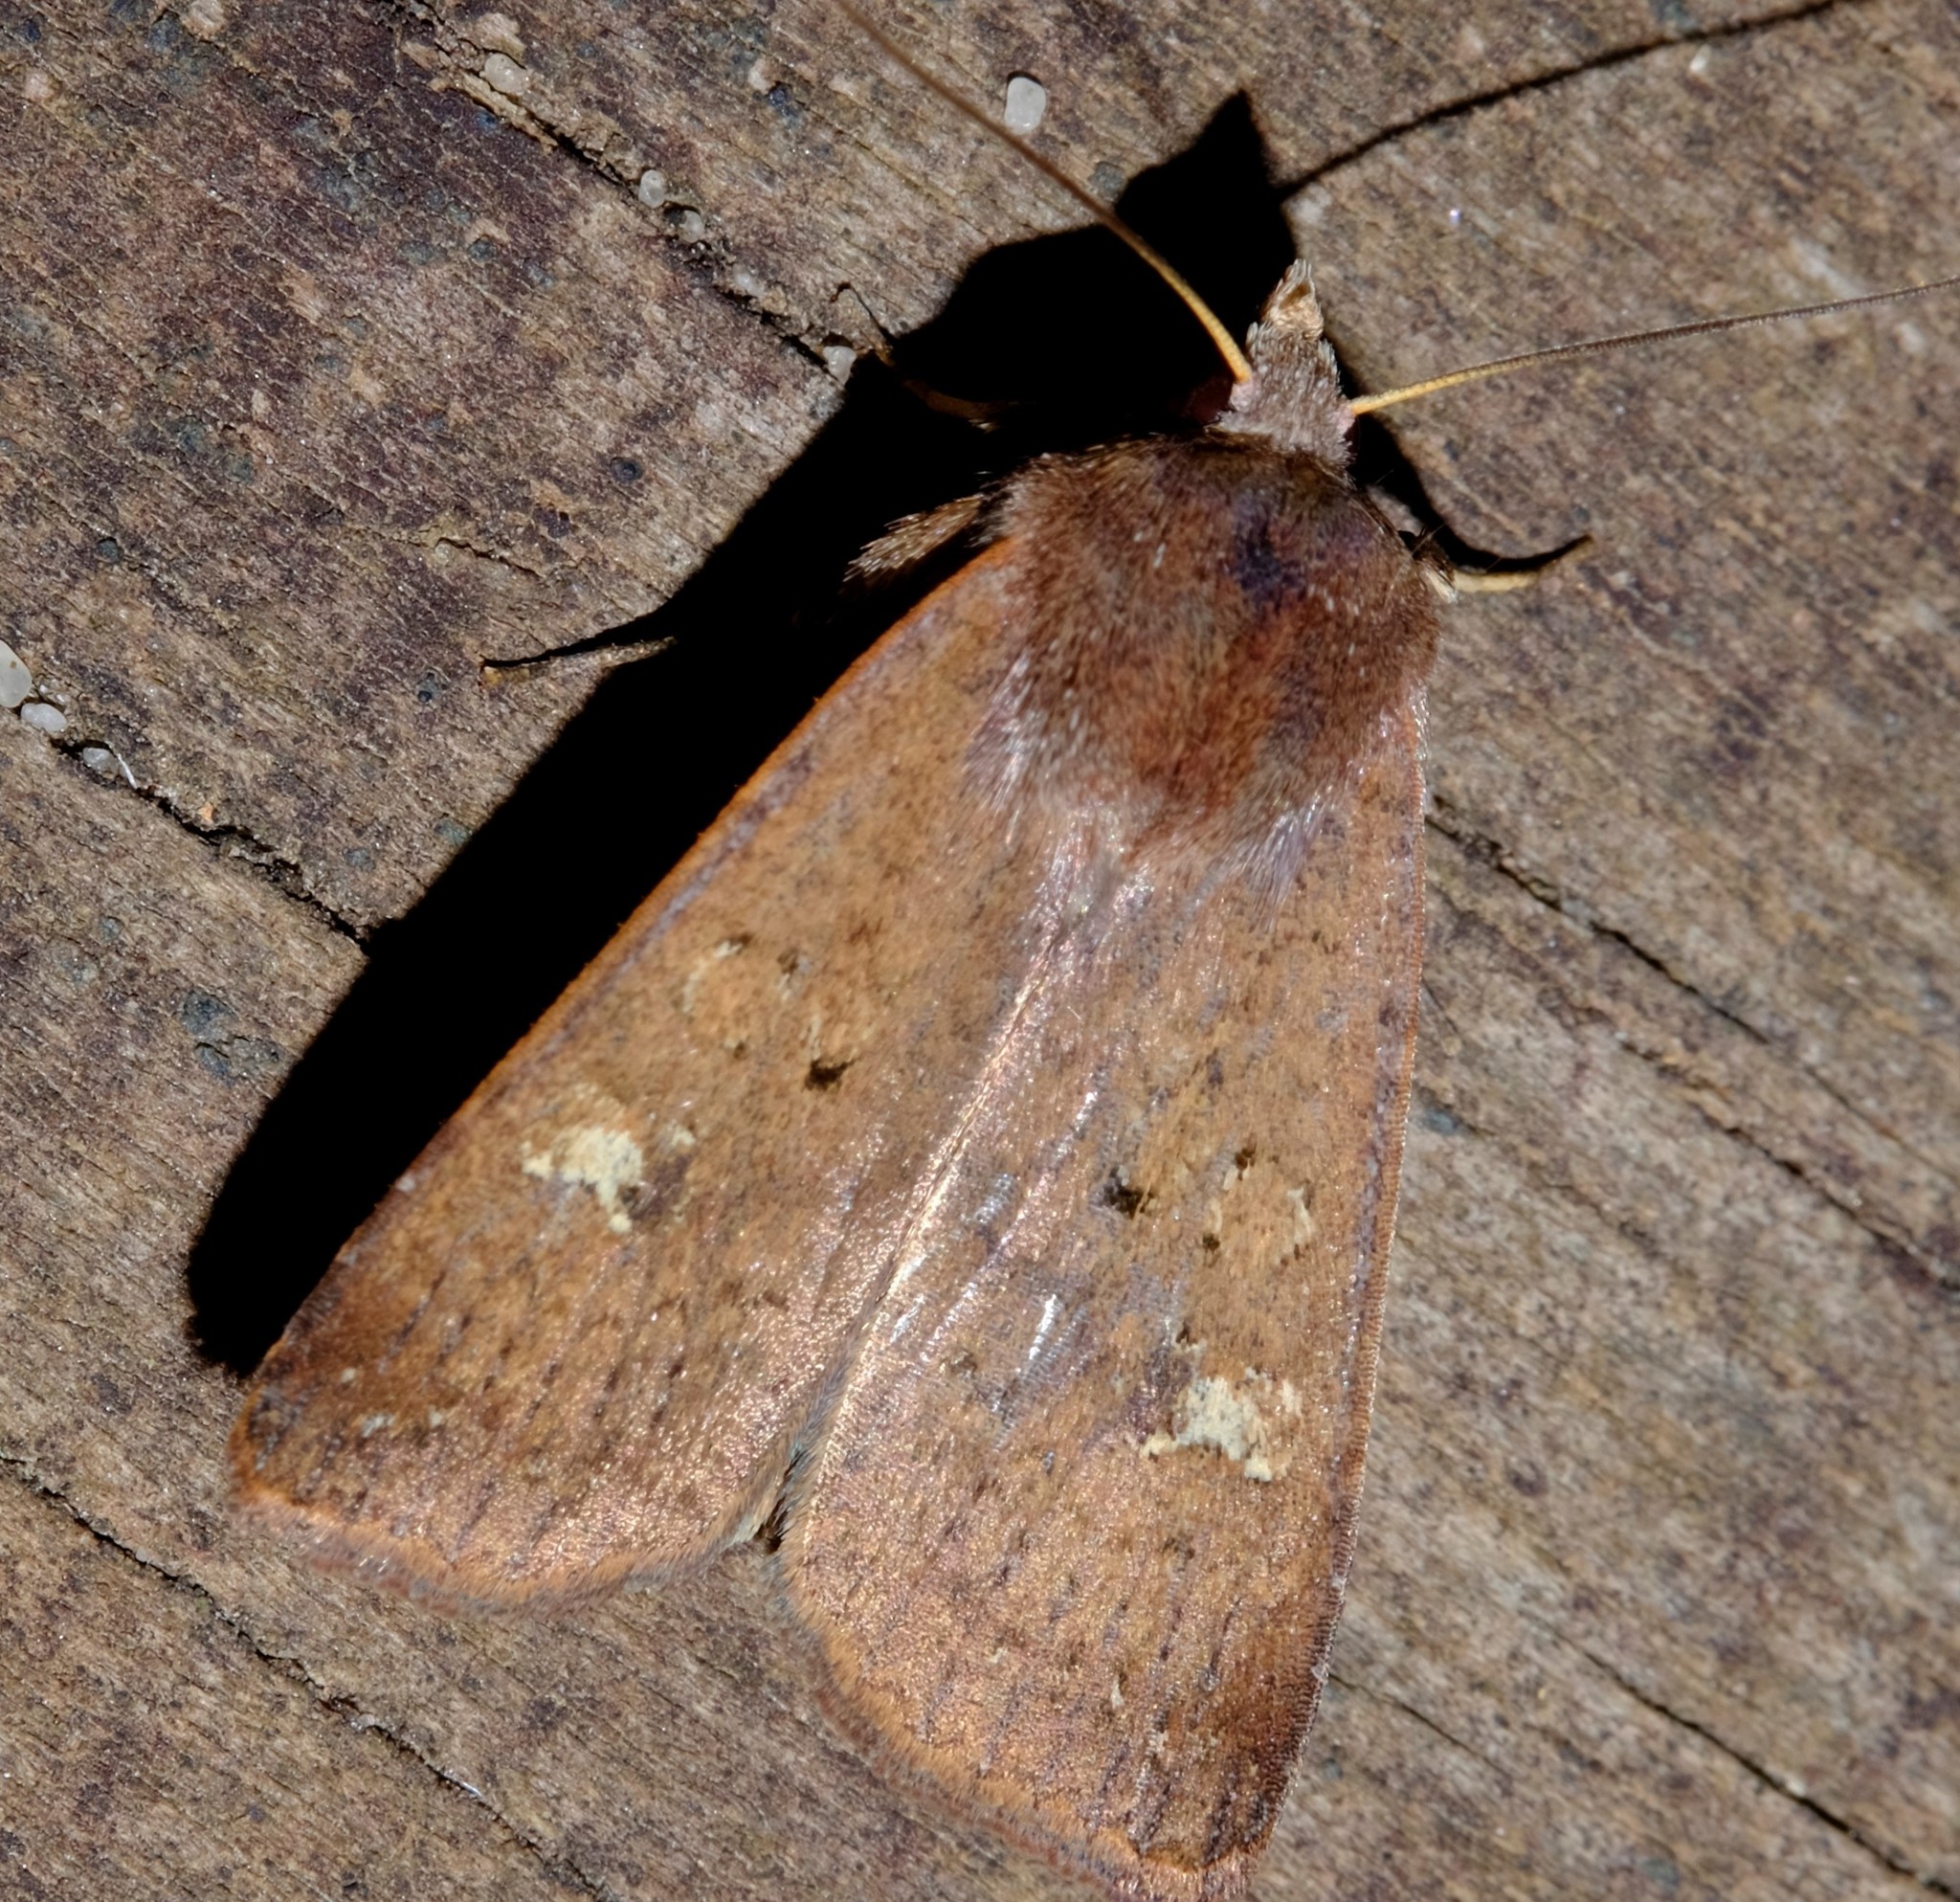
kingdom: Animalia
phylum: Arthropoda
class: Insecta
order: Lepidoptera
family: Noctuidae
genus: Diarsia
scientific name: Diarsia intermixta
